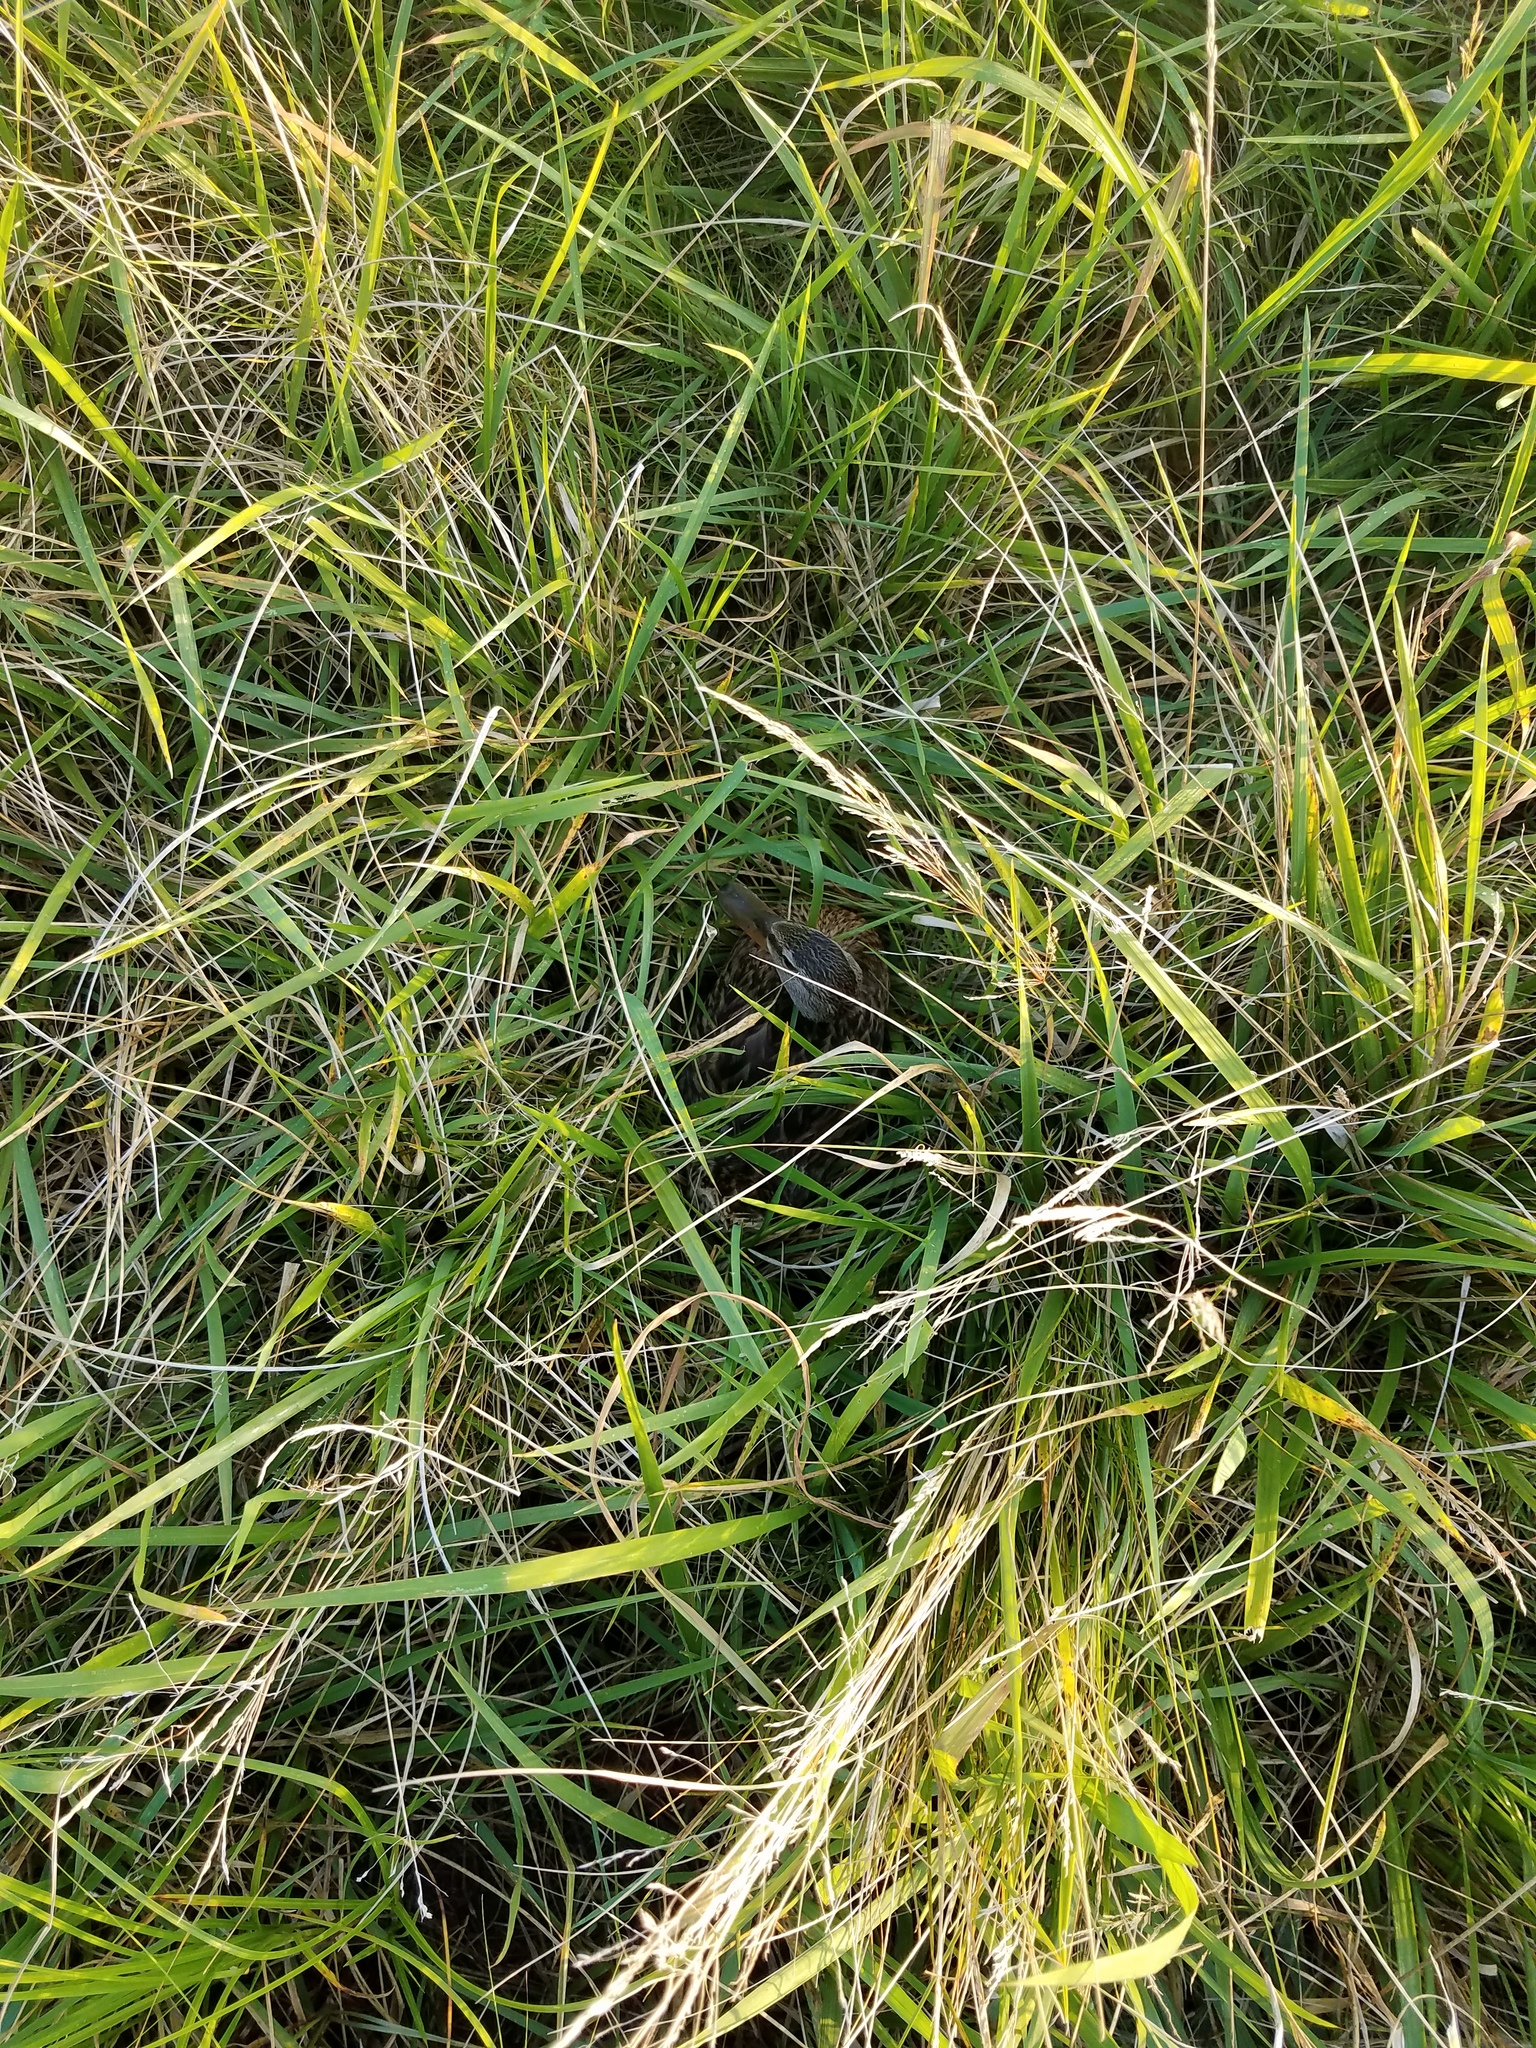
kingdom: Animalia
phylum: Chordata
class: Aves
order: Anseriformes
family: Anatidae
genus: Anas
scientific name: Anas platyrhynchos
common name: Mallard
